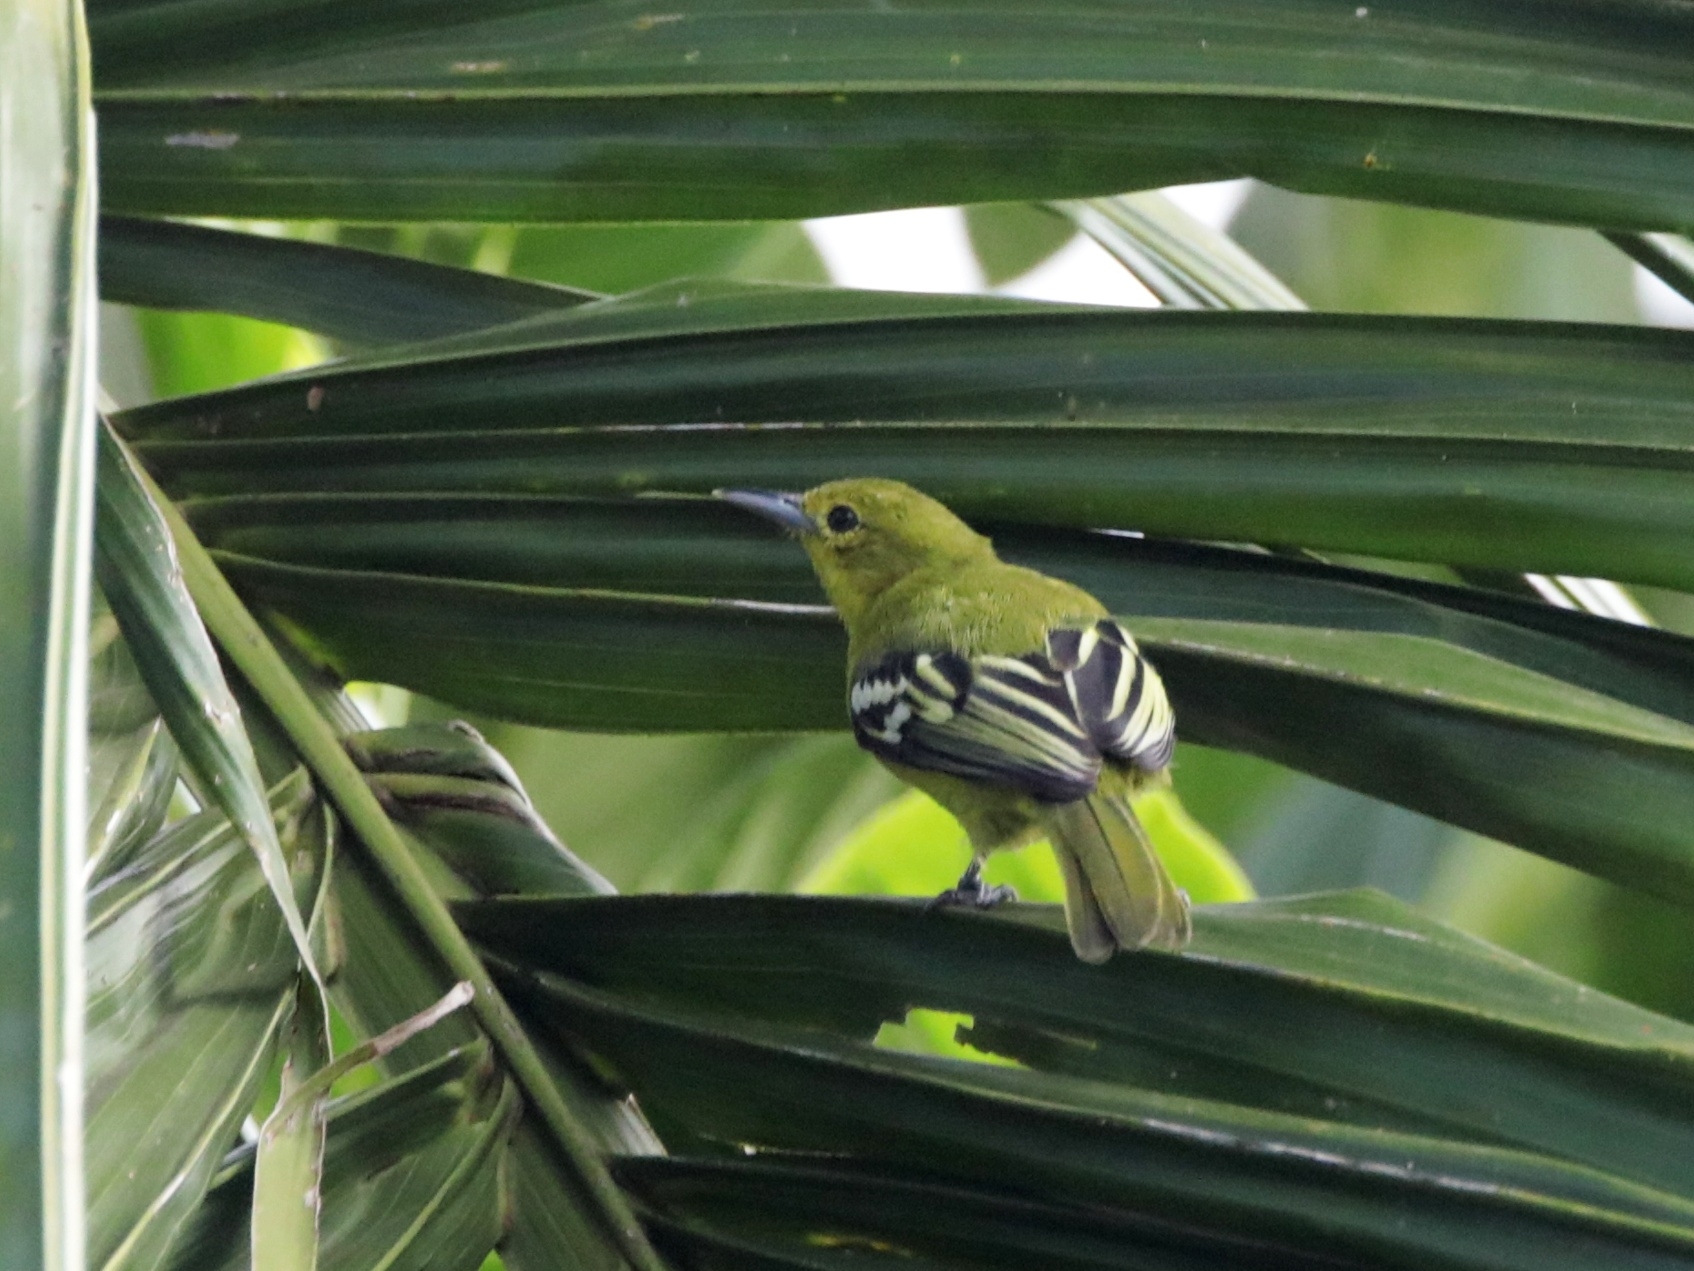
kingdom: Animalia
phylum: Chordata
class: Aves
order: Passeriformes
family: Aegithinidae
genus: Aegithina
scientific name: Aegithina tiphia
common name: Common iora
